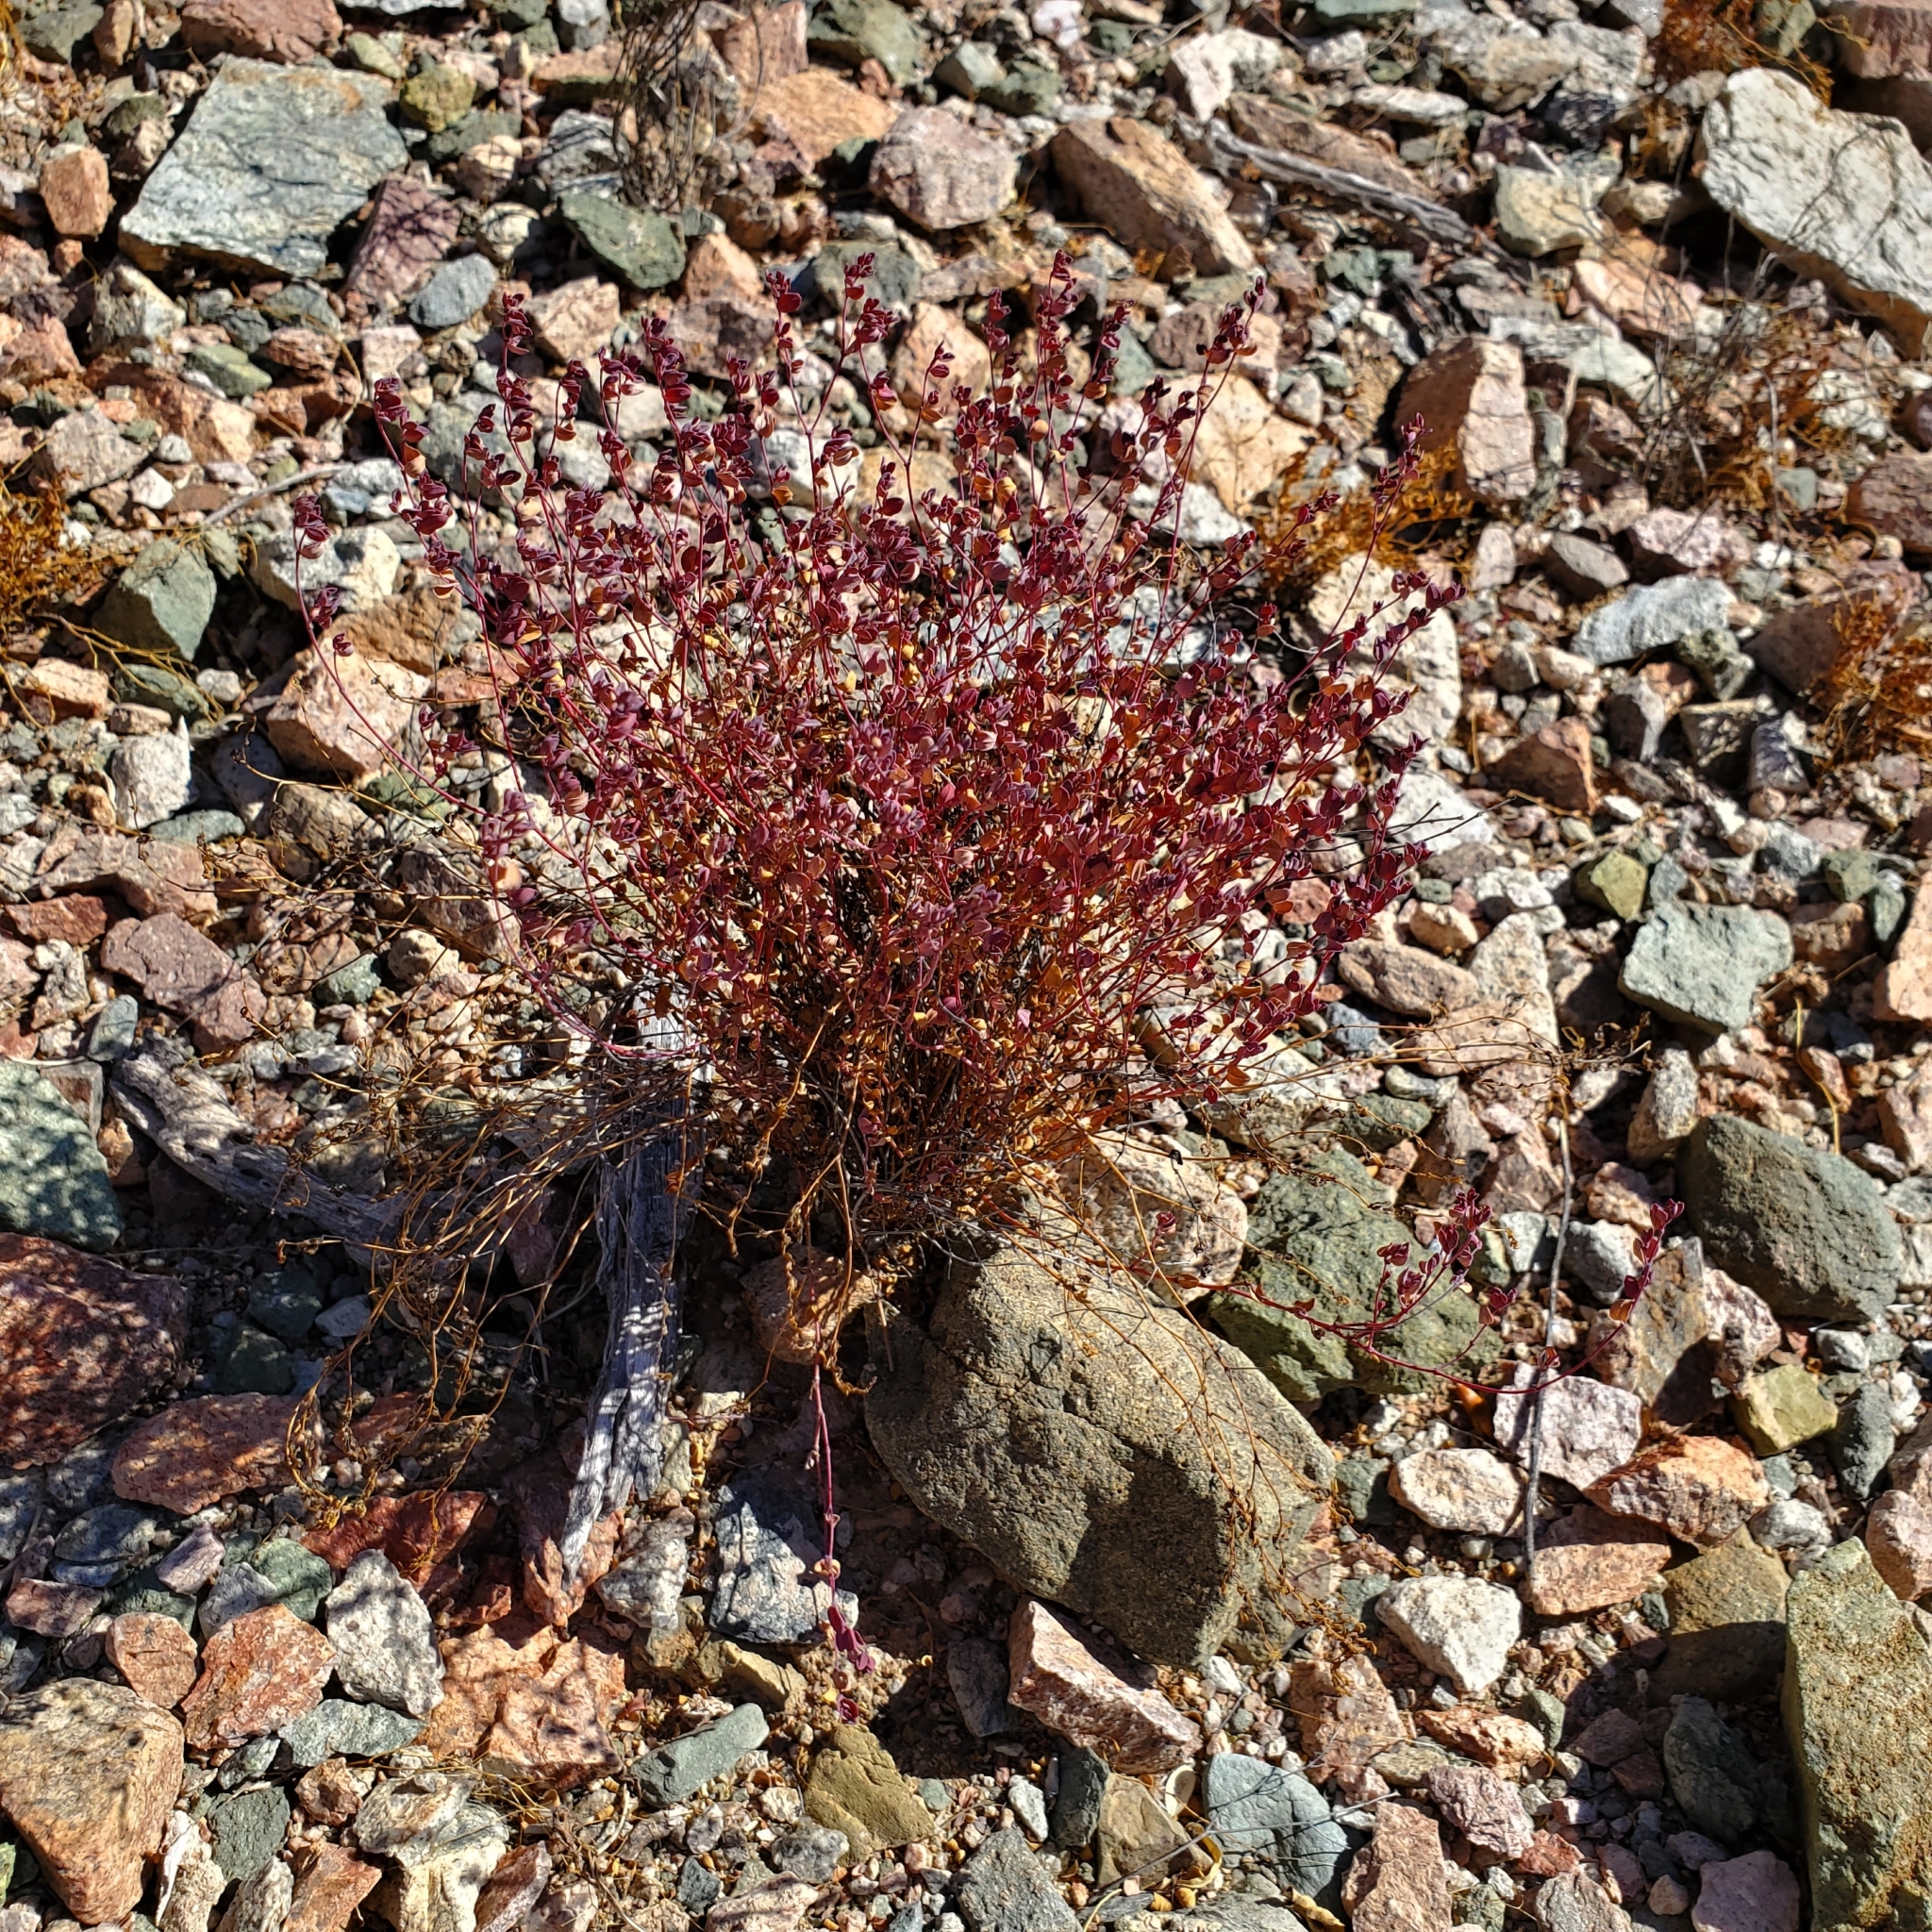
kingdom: Plantae
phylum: Tracheophyta
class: Magnoliopsida
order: Malpighiales
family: Euphorbiaceae
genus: Euphorbia
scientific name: Euphorbia polycarpa
